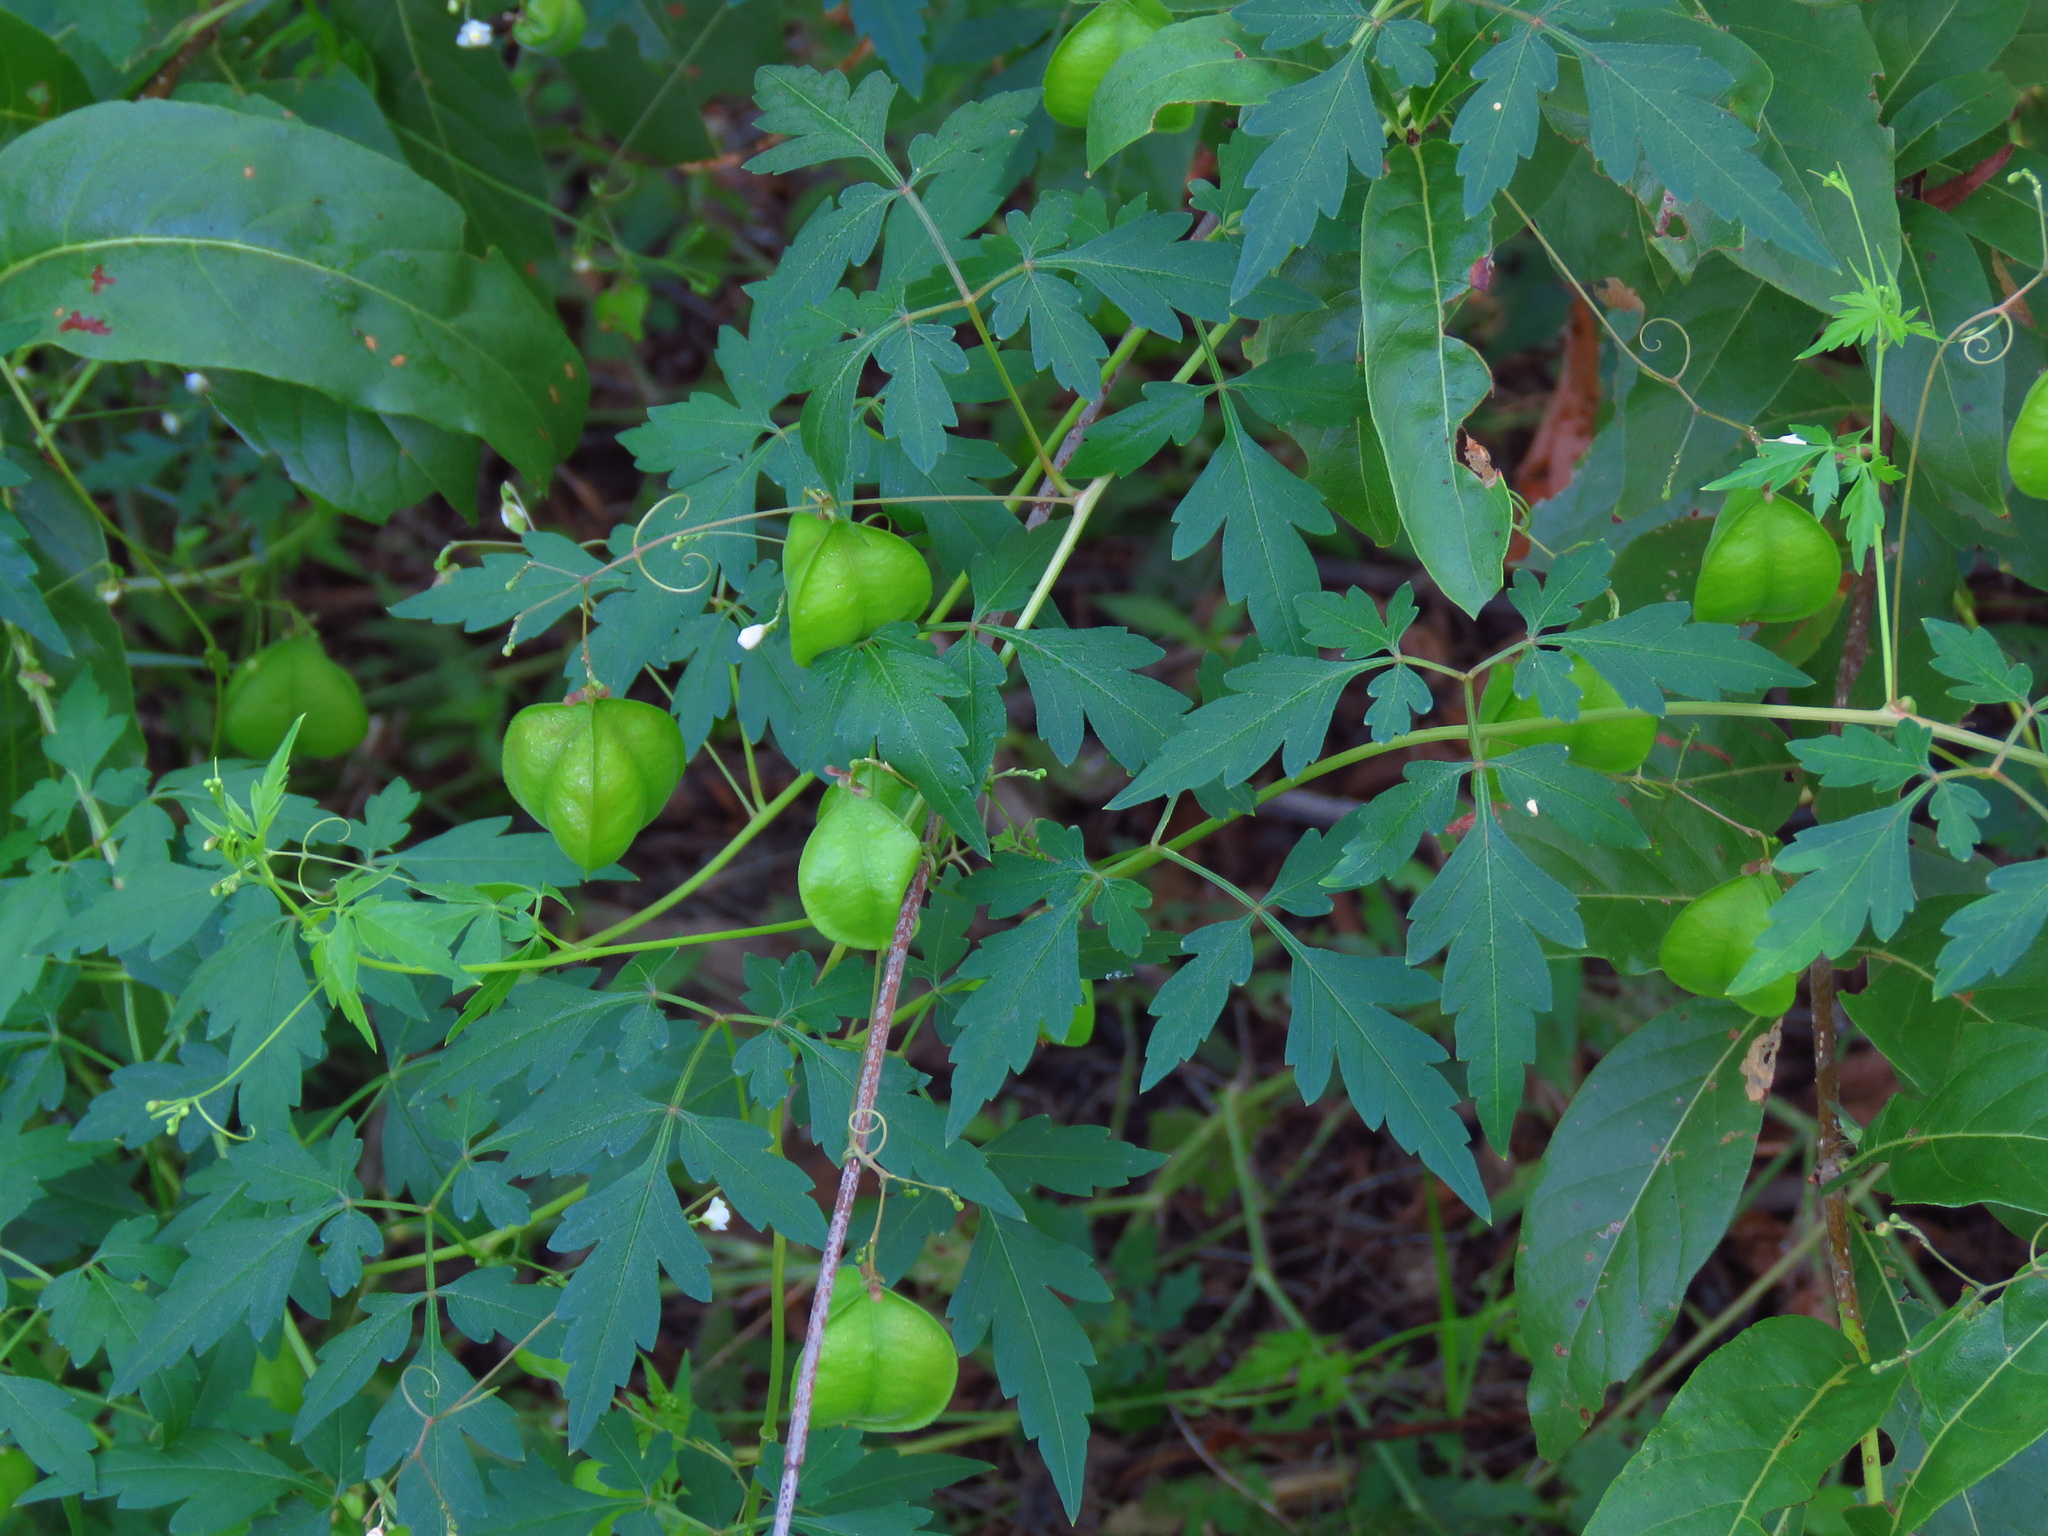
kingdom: Plantae
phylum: Tracheophyta
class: Magnoliopsida
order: Sapindales
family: Sapindaceae
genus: Cardiospermum
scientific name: Cardiospermum halicacabum
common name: Balloon vine
